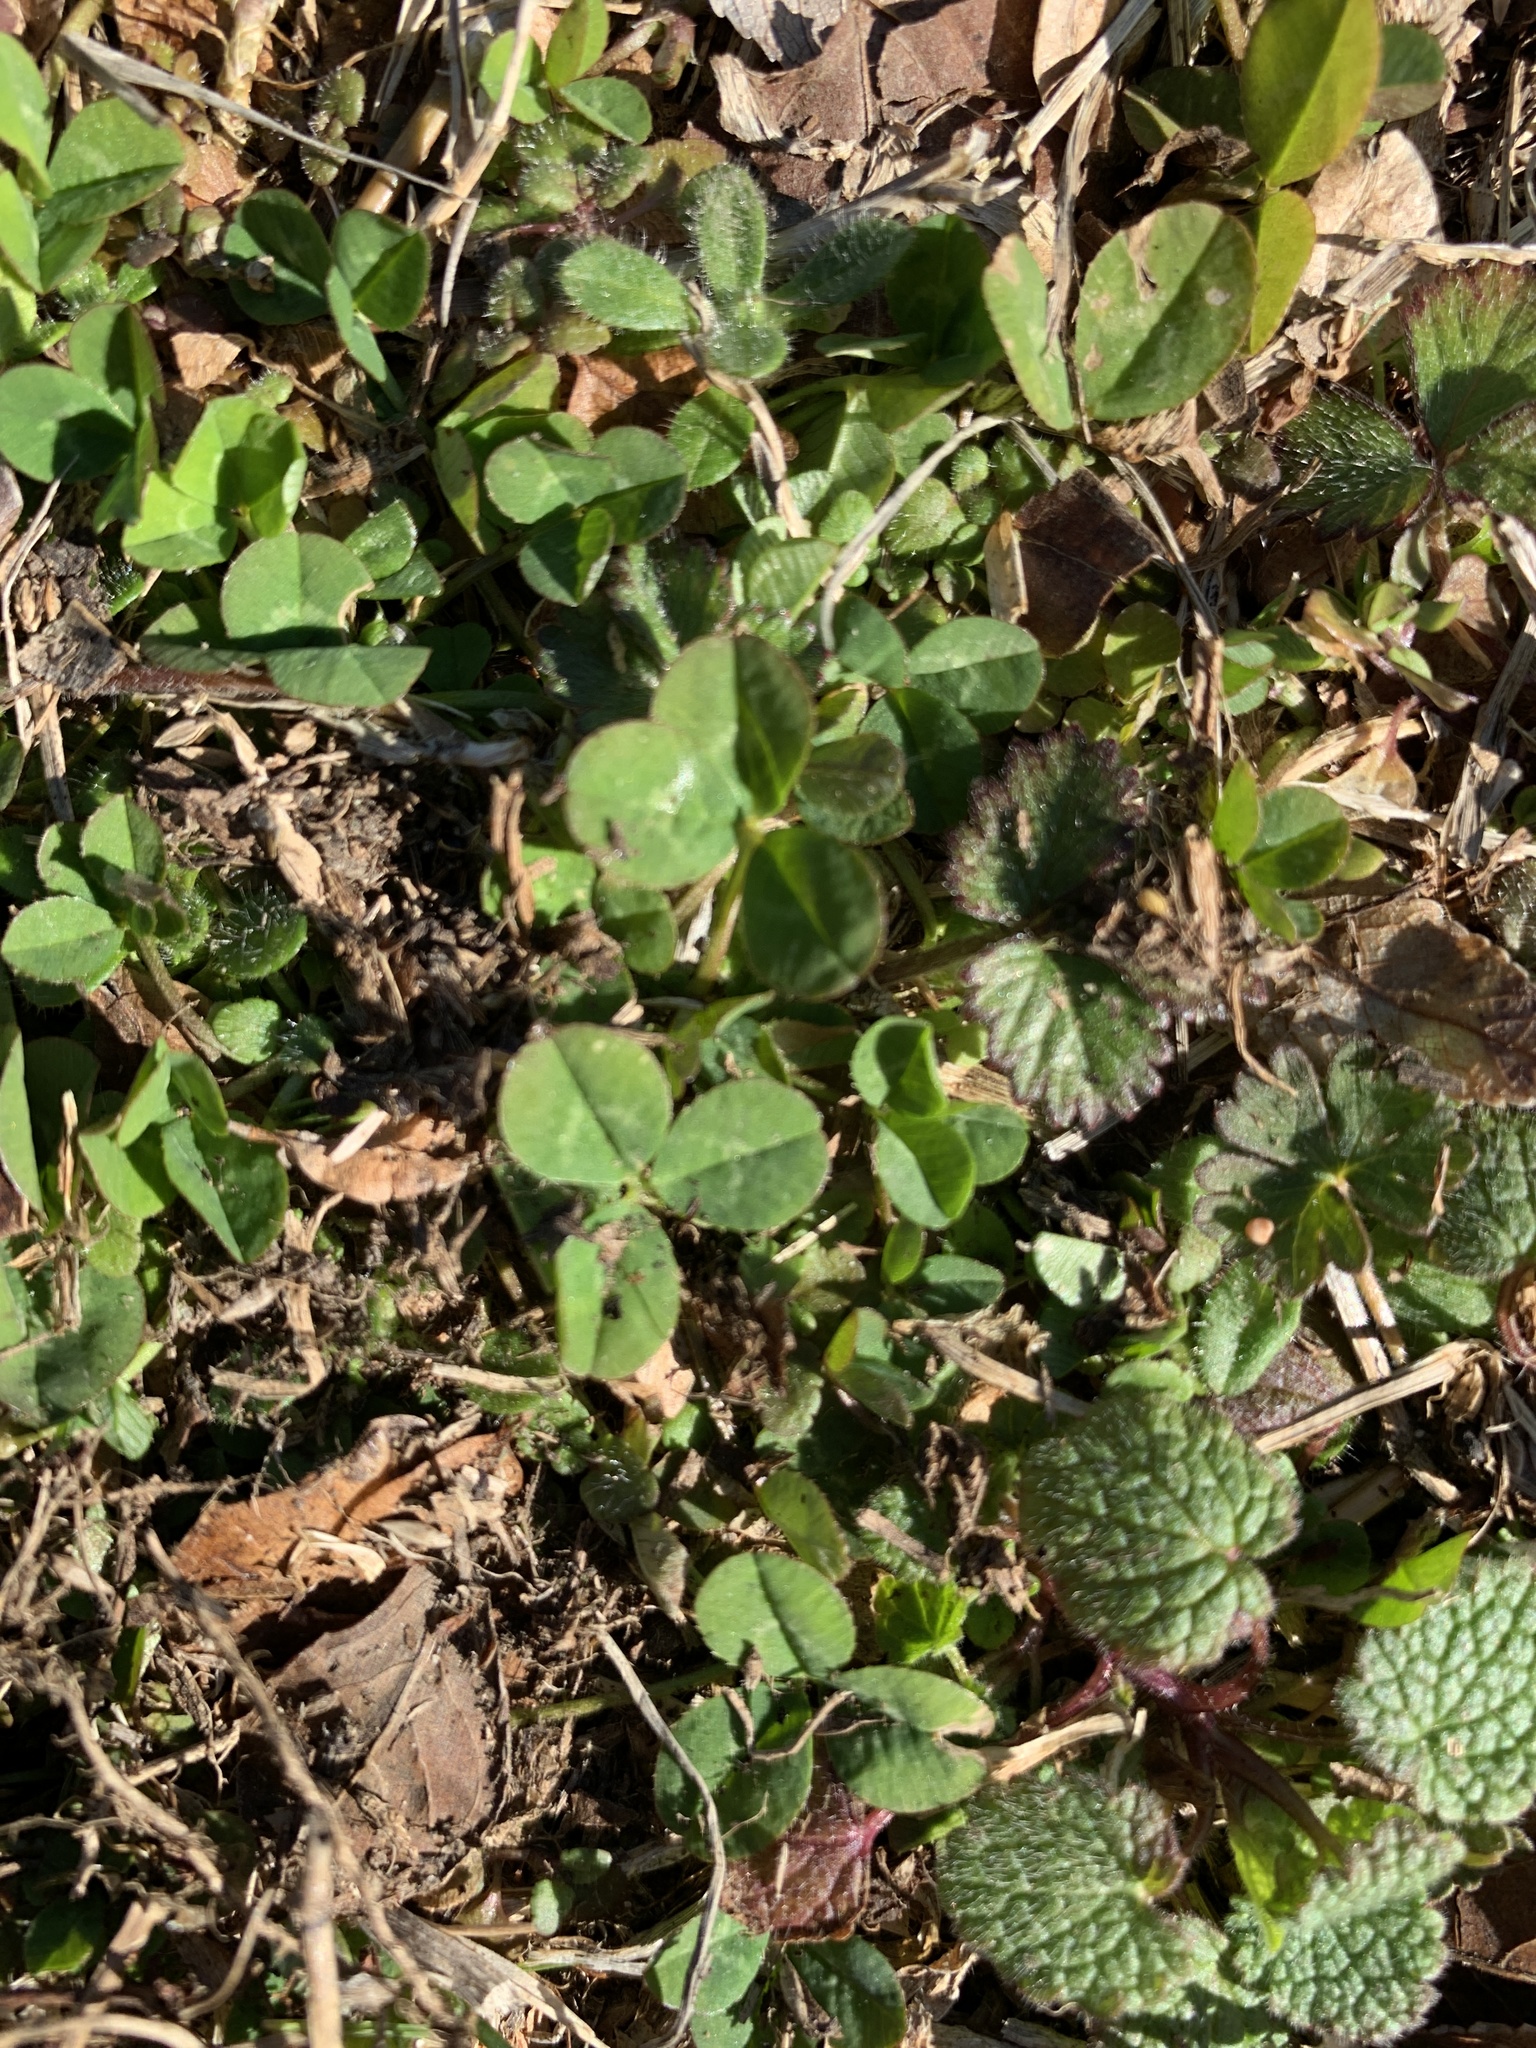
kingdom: Plantae
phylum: Tracheophyta
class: Magnoliopsida
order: Fabales
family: Fabaceae
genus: Trifolium
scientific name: Trifolium repens
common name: White clover
